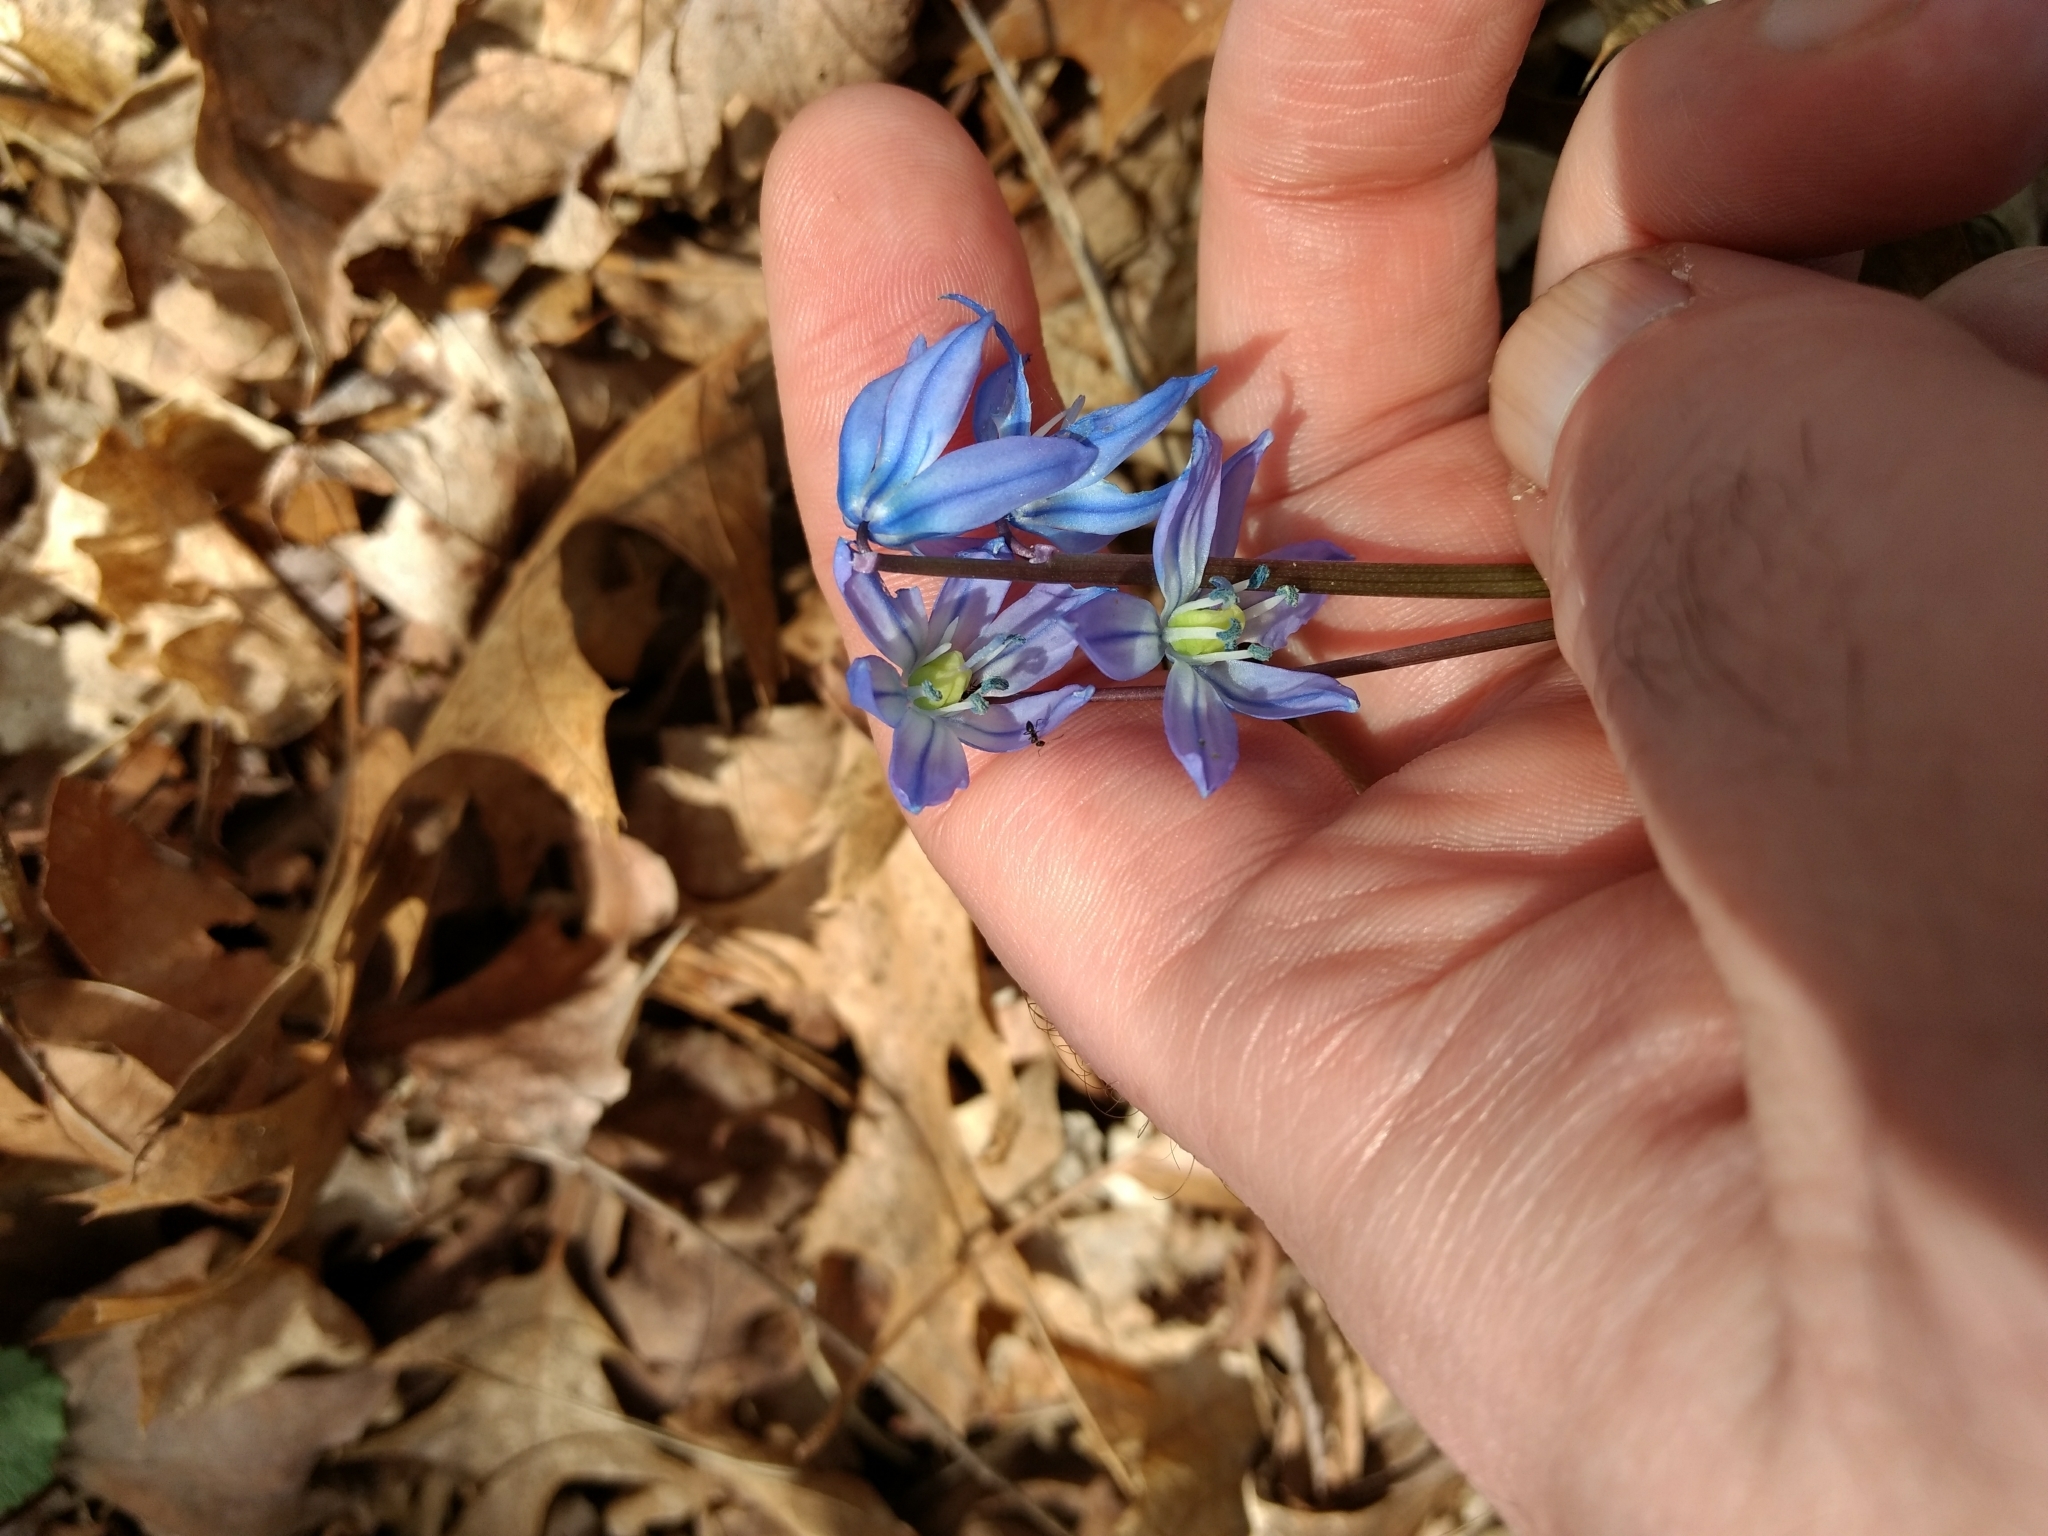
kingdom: Plantae
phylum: Tracheophyta
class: Liliopsida
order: Asparagales
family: Asparagaceae
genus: Scilla
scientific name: Scilla siberica
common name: Siberian squill
